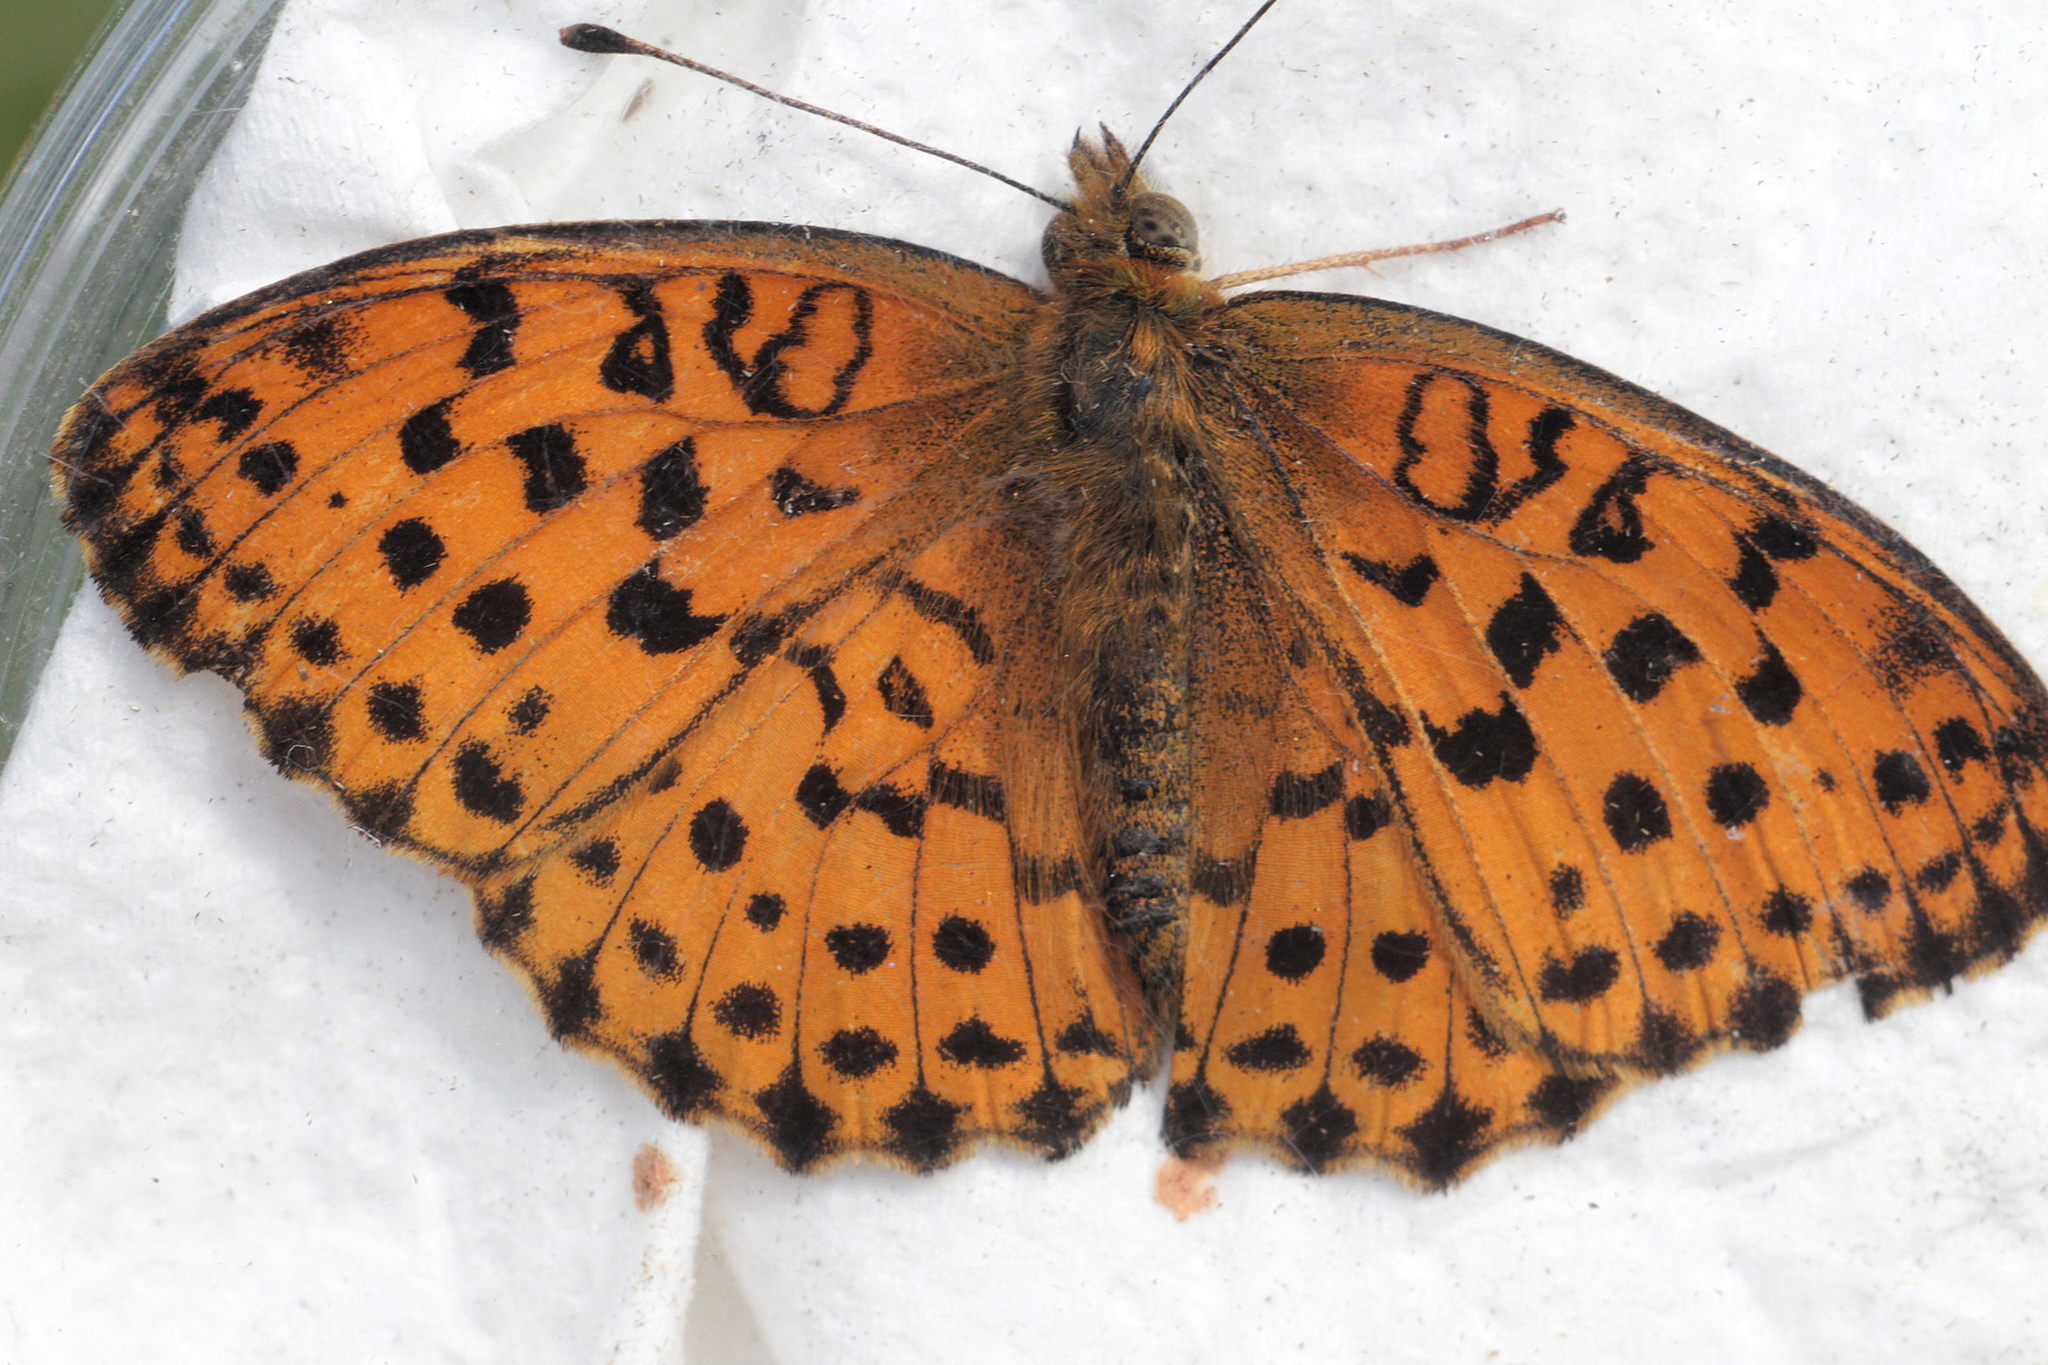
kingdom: Animalia
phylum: Arthropoda
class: Insecta
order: Lepidoptera
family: Nymphalidae
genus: Brenthis
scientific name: Brenthis daphne
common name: Marbled fritillary
